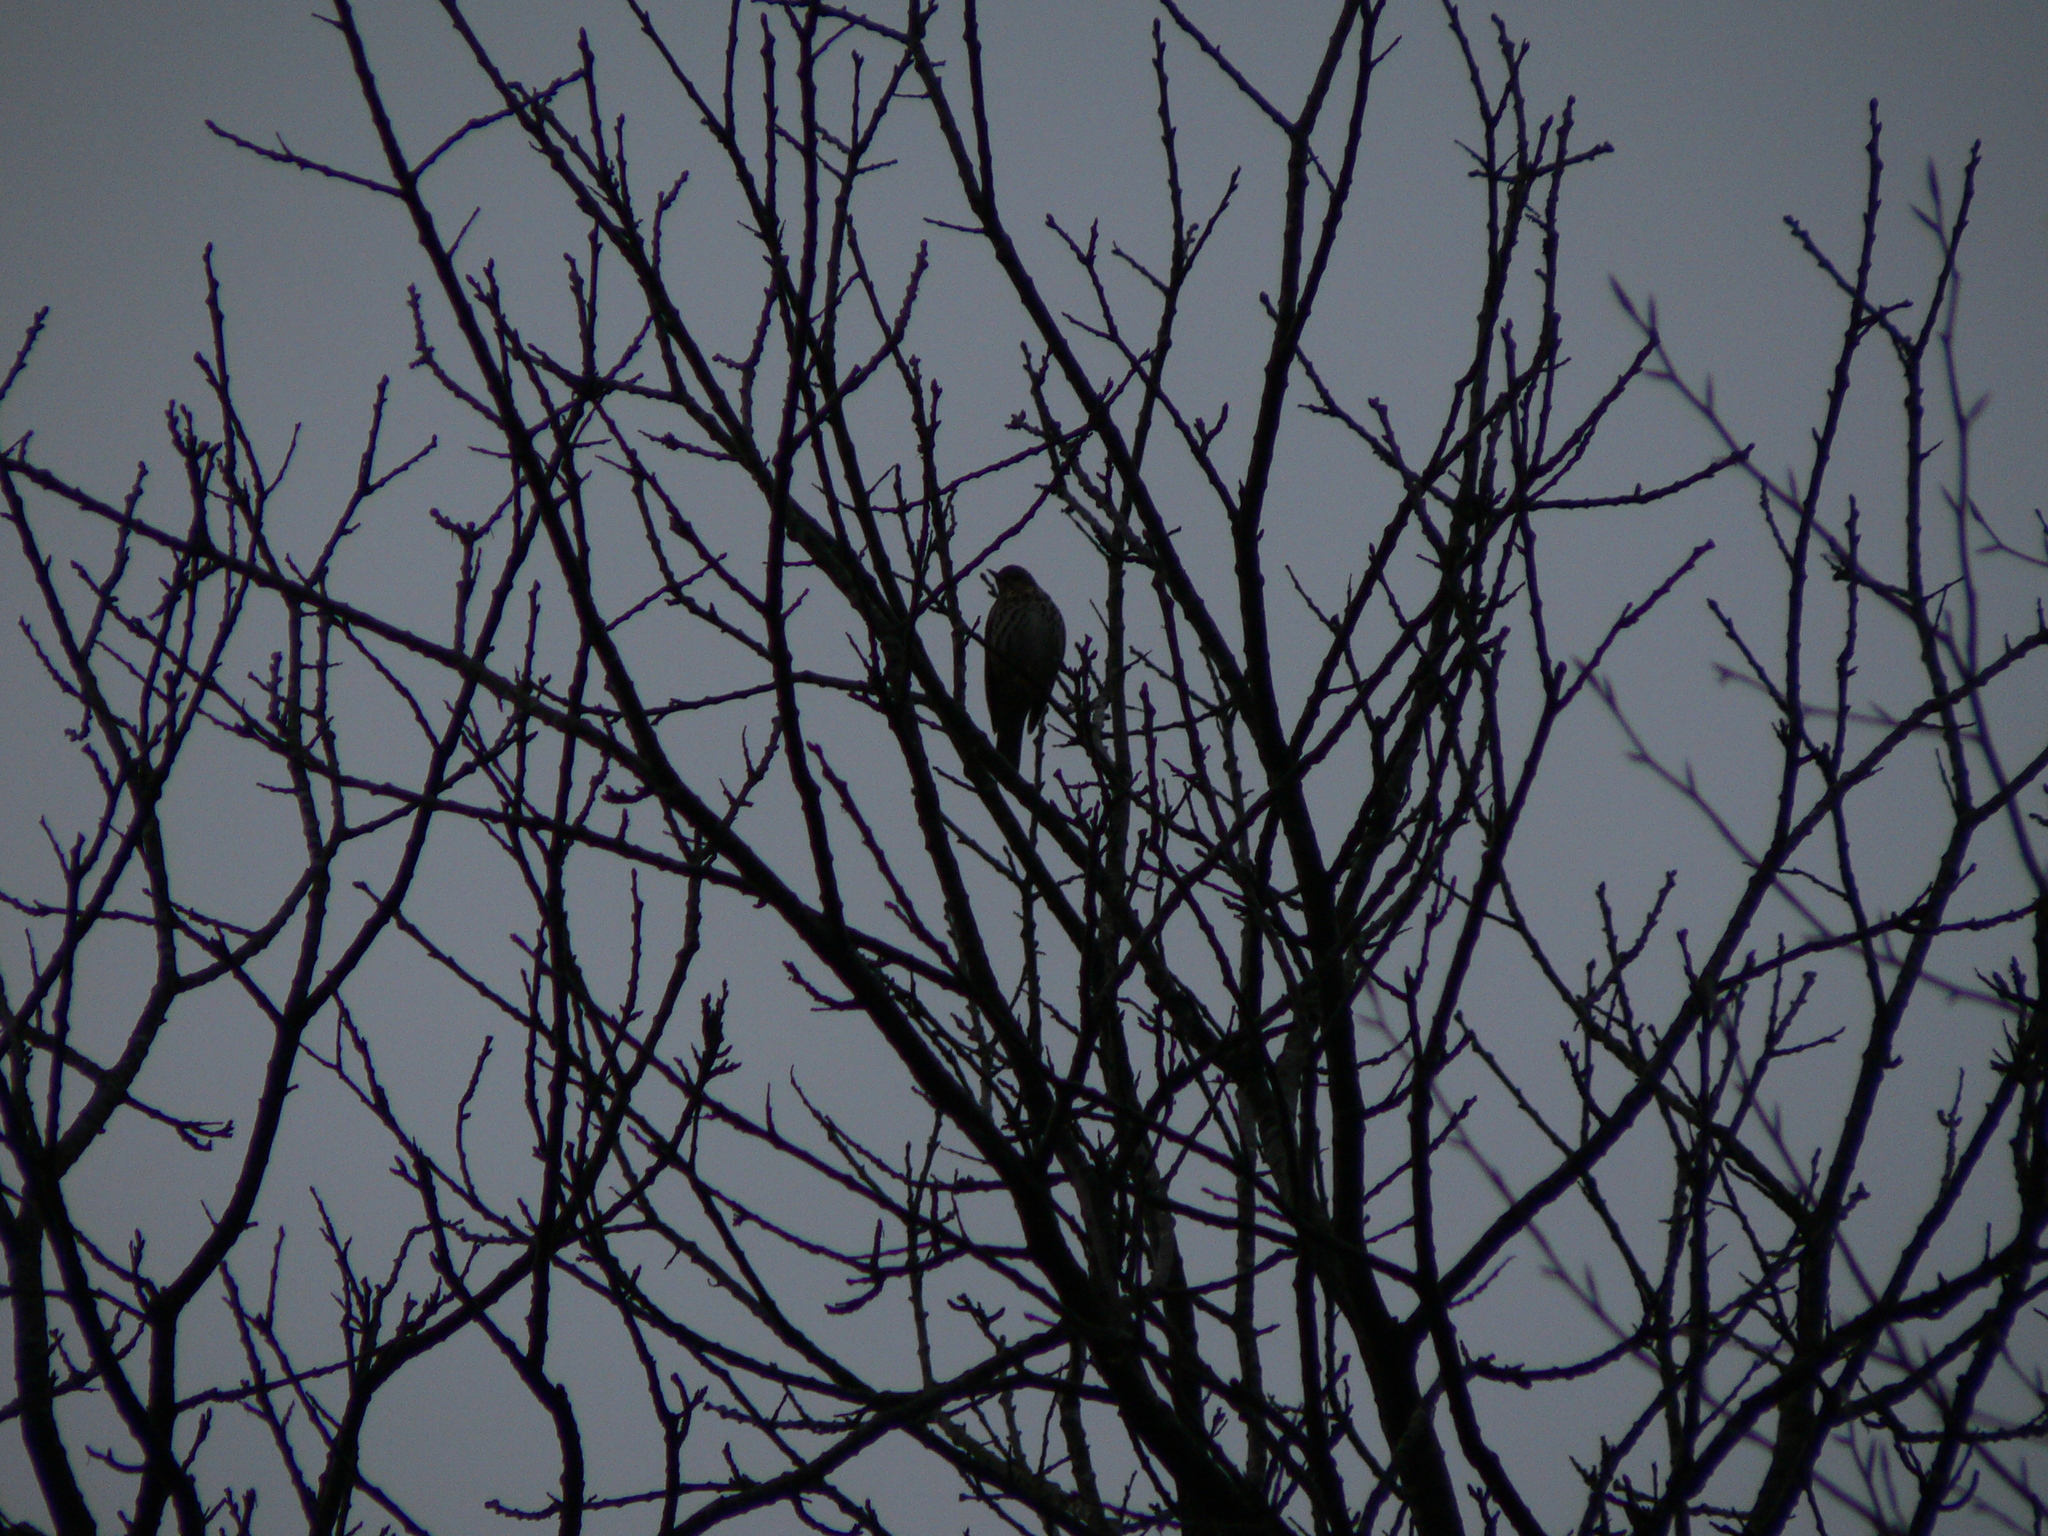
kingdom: Animalia
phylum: Chordata
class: Aves
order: Passeriformes
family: Turdidae
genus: Turdus
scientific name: Turdus philomelos
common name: Song thrush
